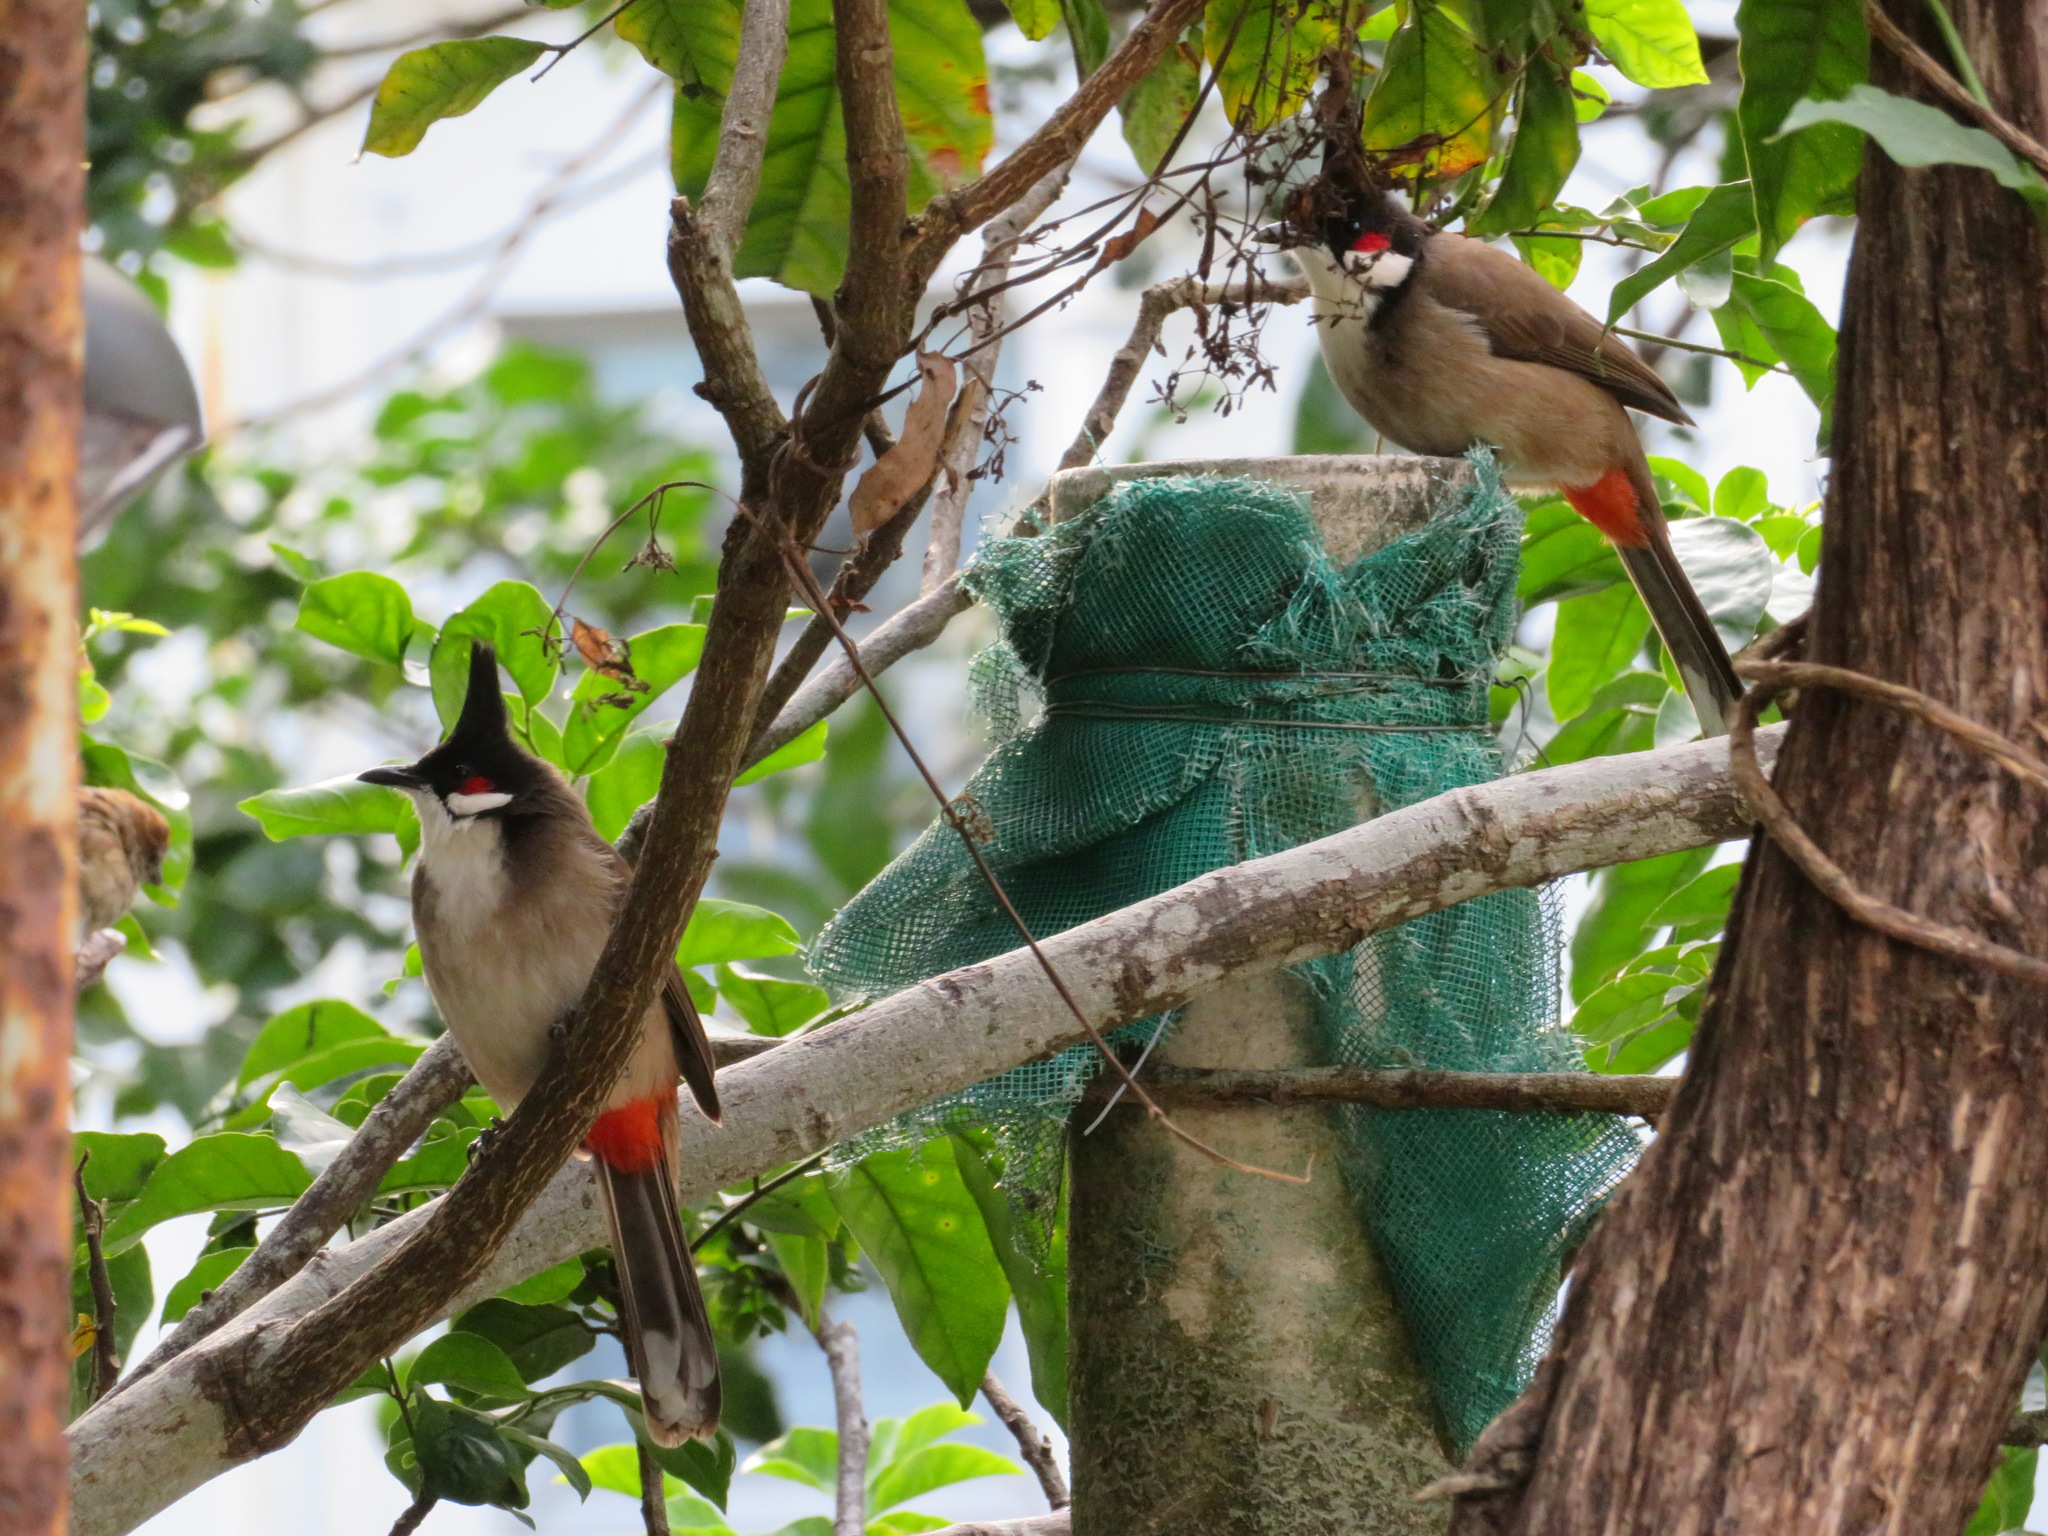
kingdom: Animalia
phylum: Chordata
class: Aves
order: Passeriformes
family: Pycnonotidae
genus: Pycnonotus
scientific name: Pycnonotus jocosus
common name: Red-whiskered bulbul
